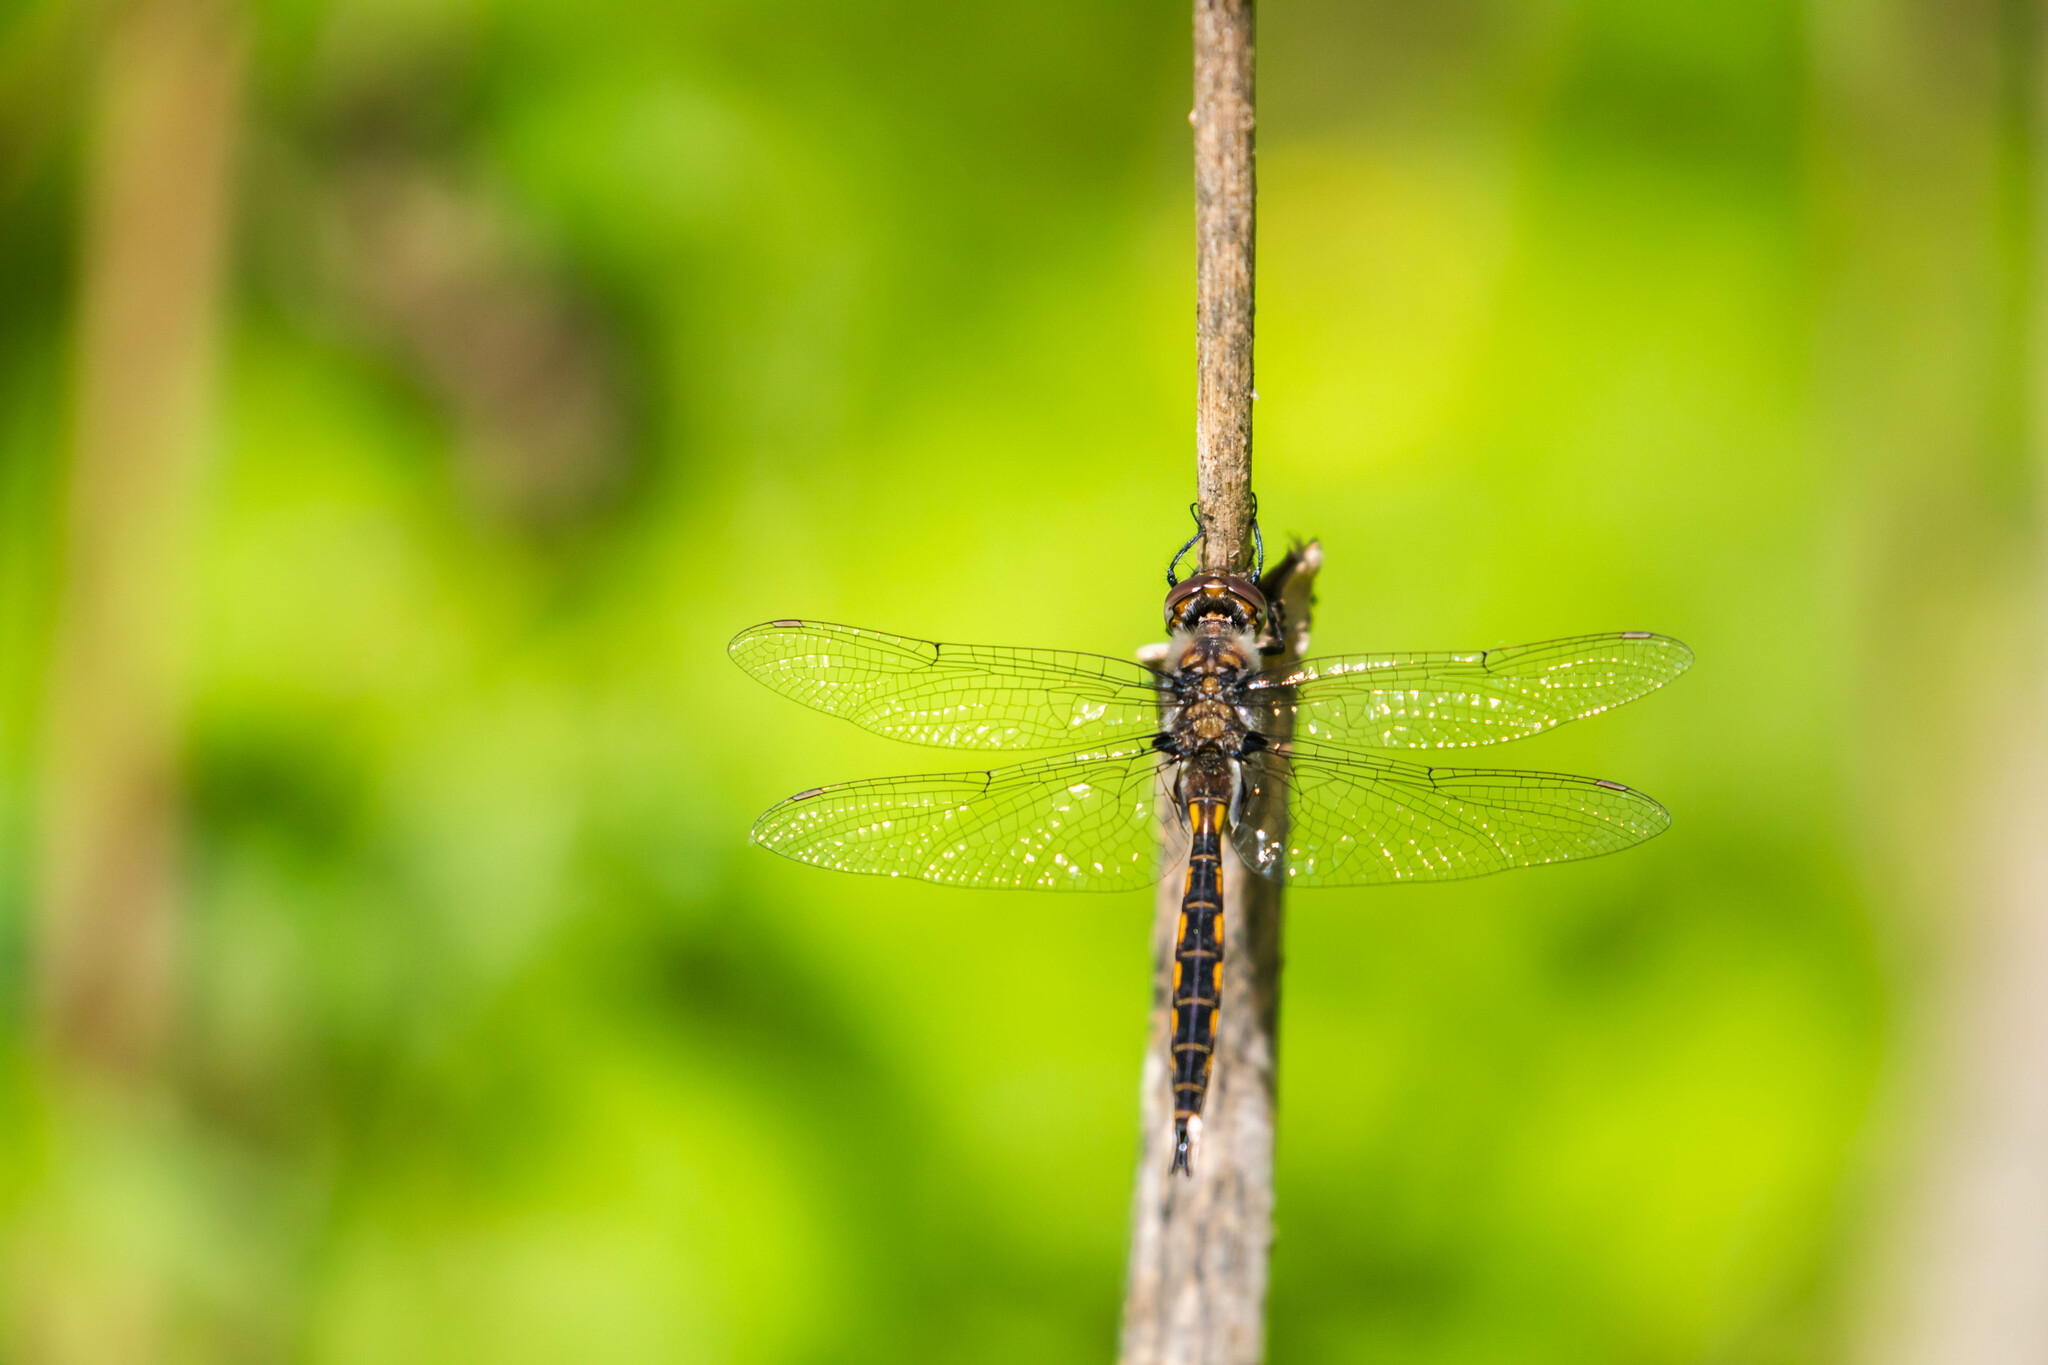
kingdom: Animalia
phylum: Arthropoda
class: Insecta
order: Odonata
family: Corduliidae
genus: Epitheca
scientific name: Epitheca costalis
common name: Slender baskettail
